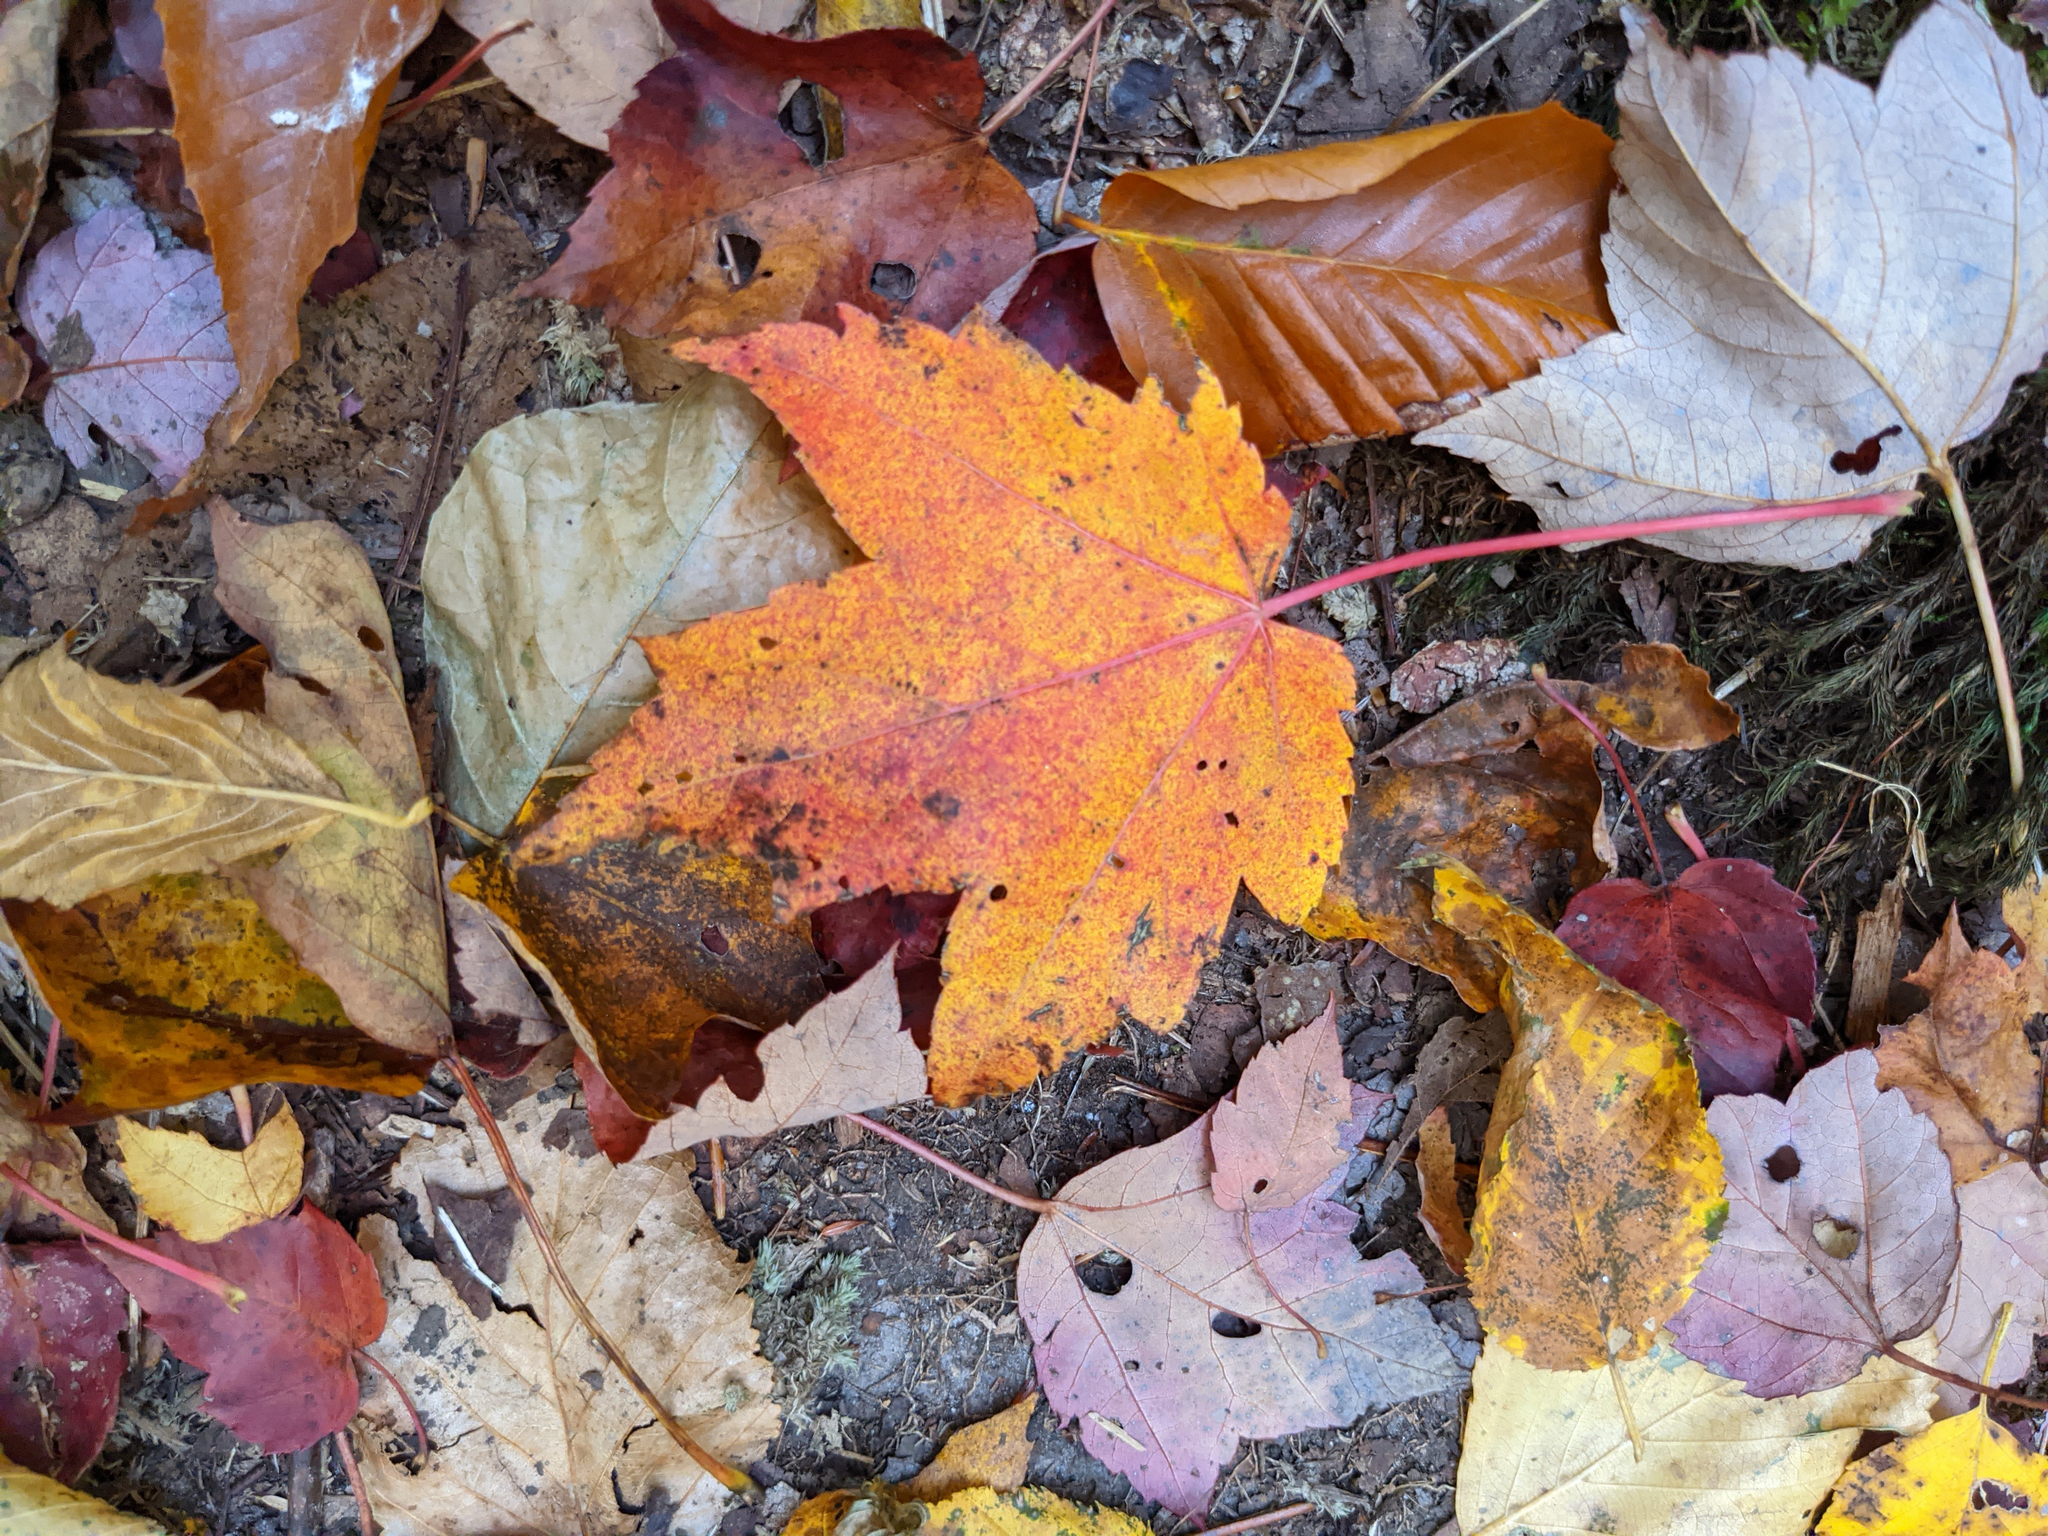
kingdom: Plantae
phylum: Tracheophyta
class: Magnoliopsida
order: Sapindales
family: Sapindaceae
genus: Acer
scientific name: Acer rubrum
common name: Red maple
